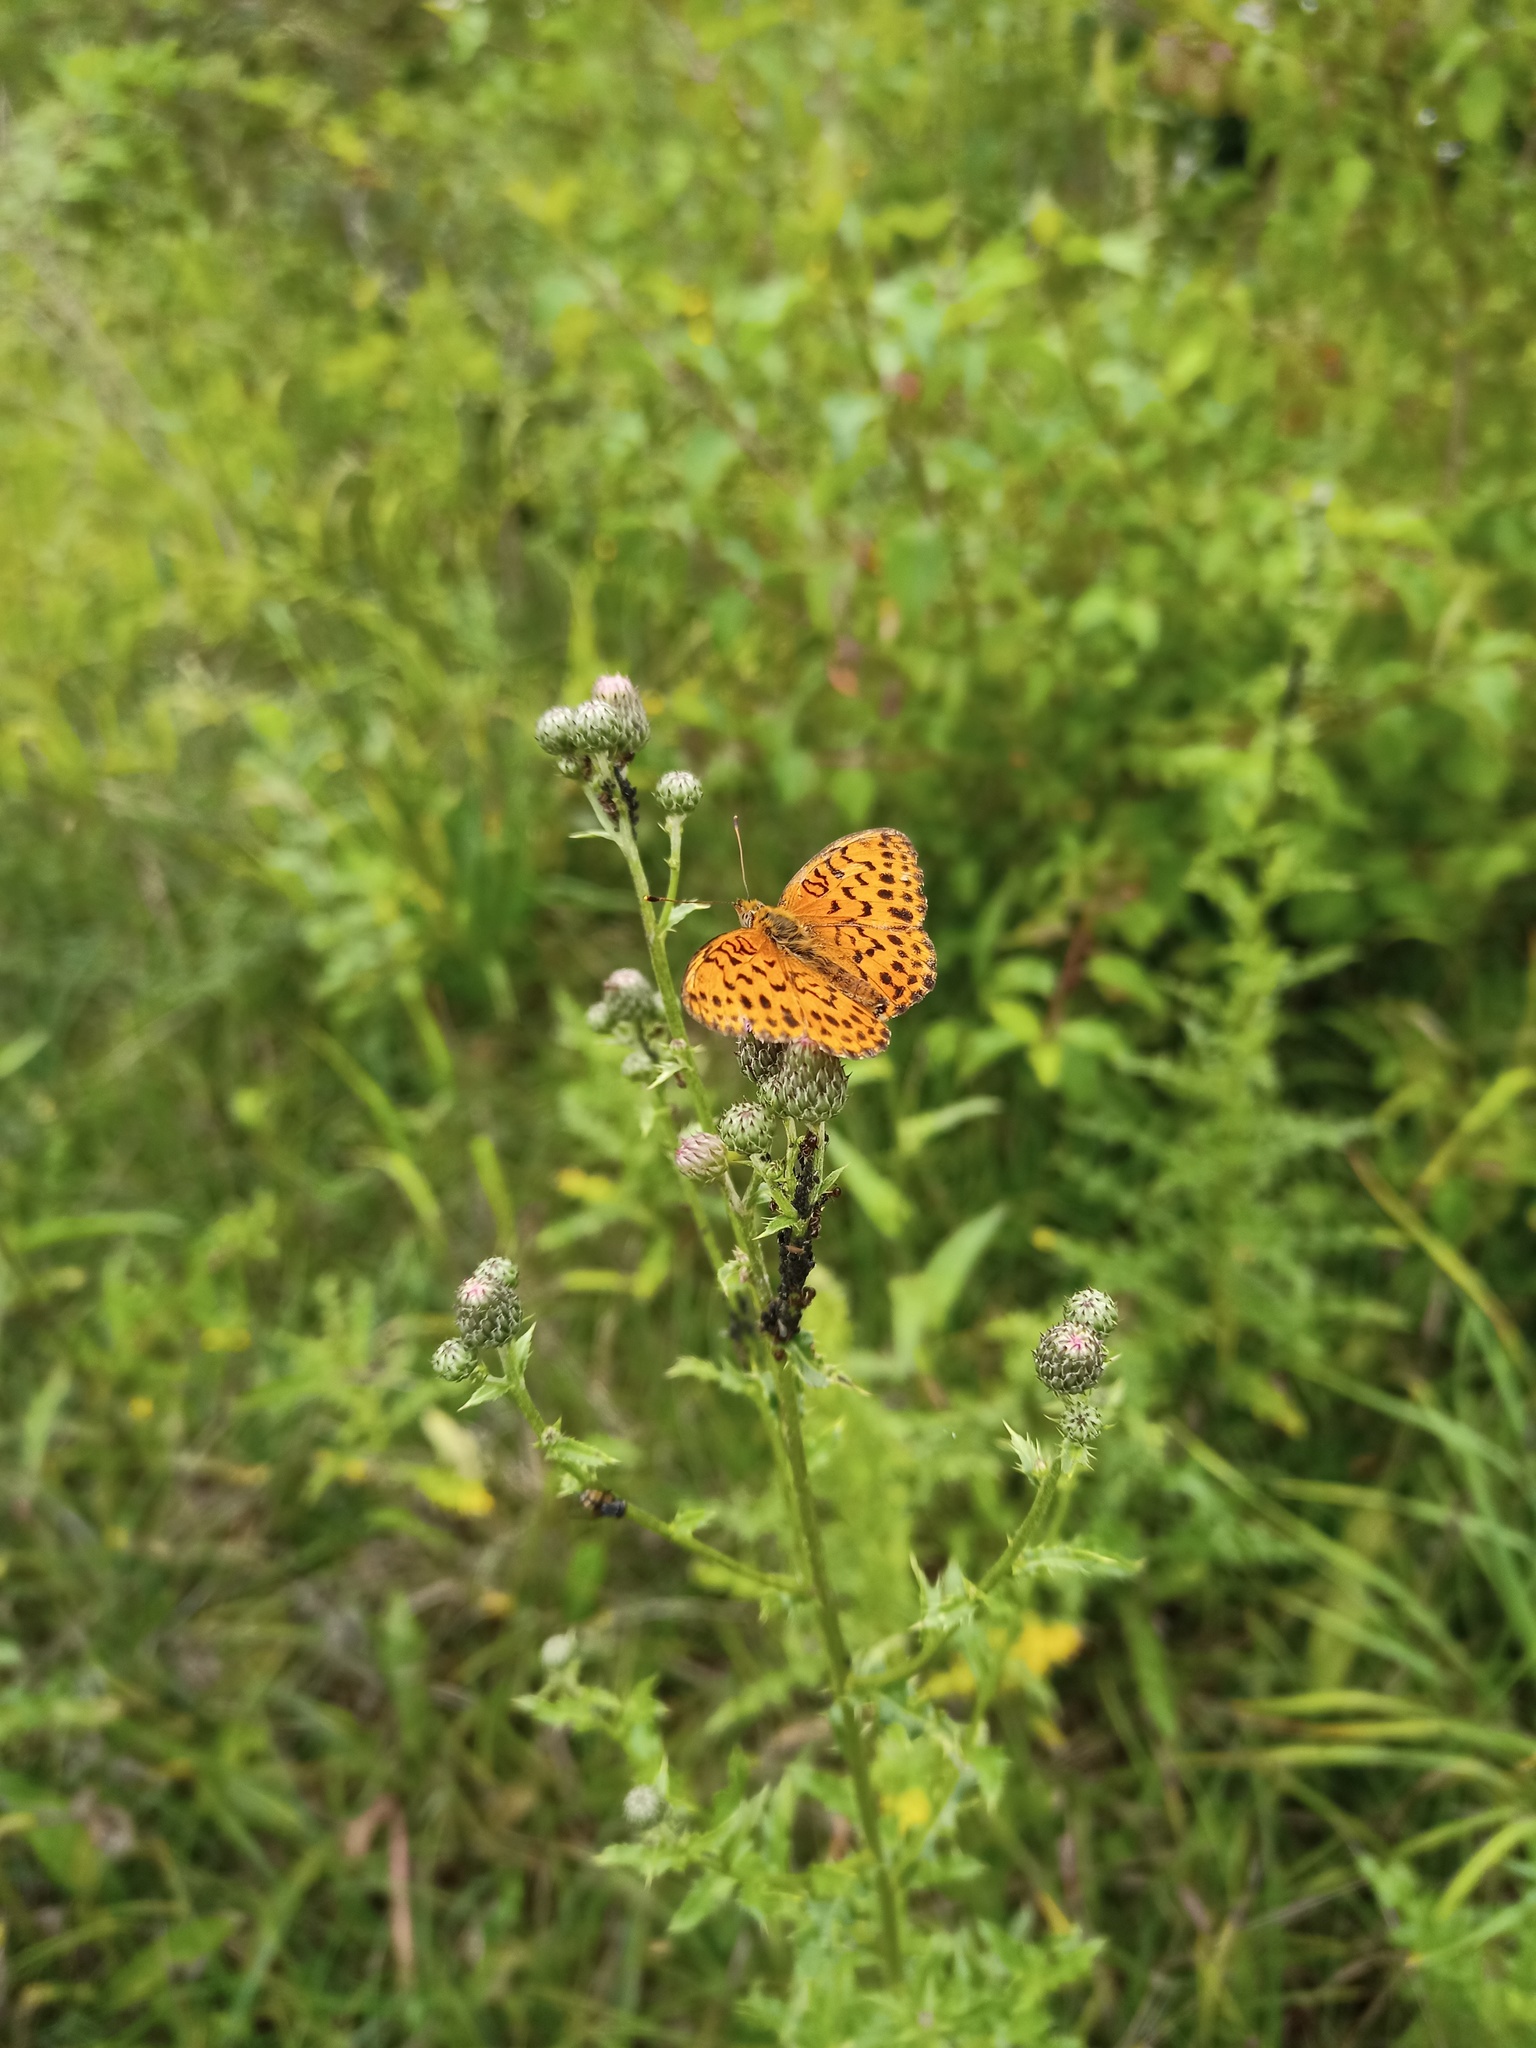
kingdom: Animalia
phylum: Arthropoda
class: Insecta
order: Lepidoptera
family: Nymphalidae
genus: Brenthis
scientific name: Brenthis daphne
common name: Marbled fritillary
